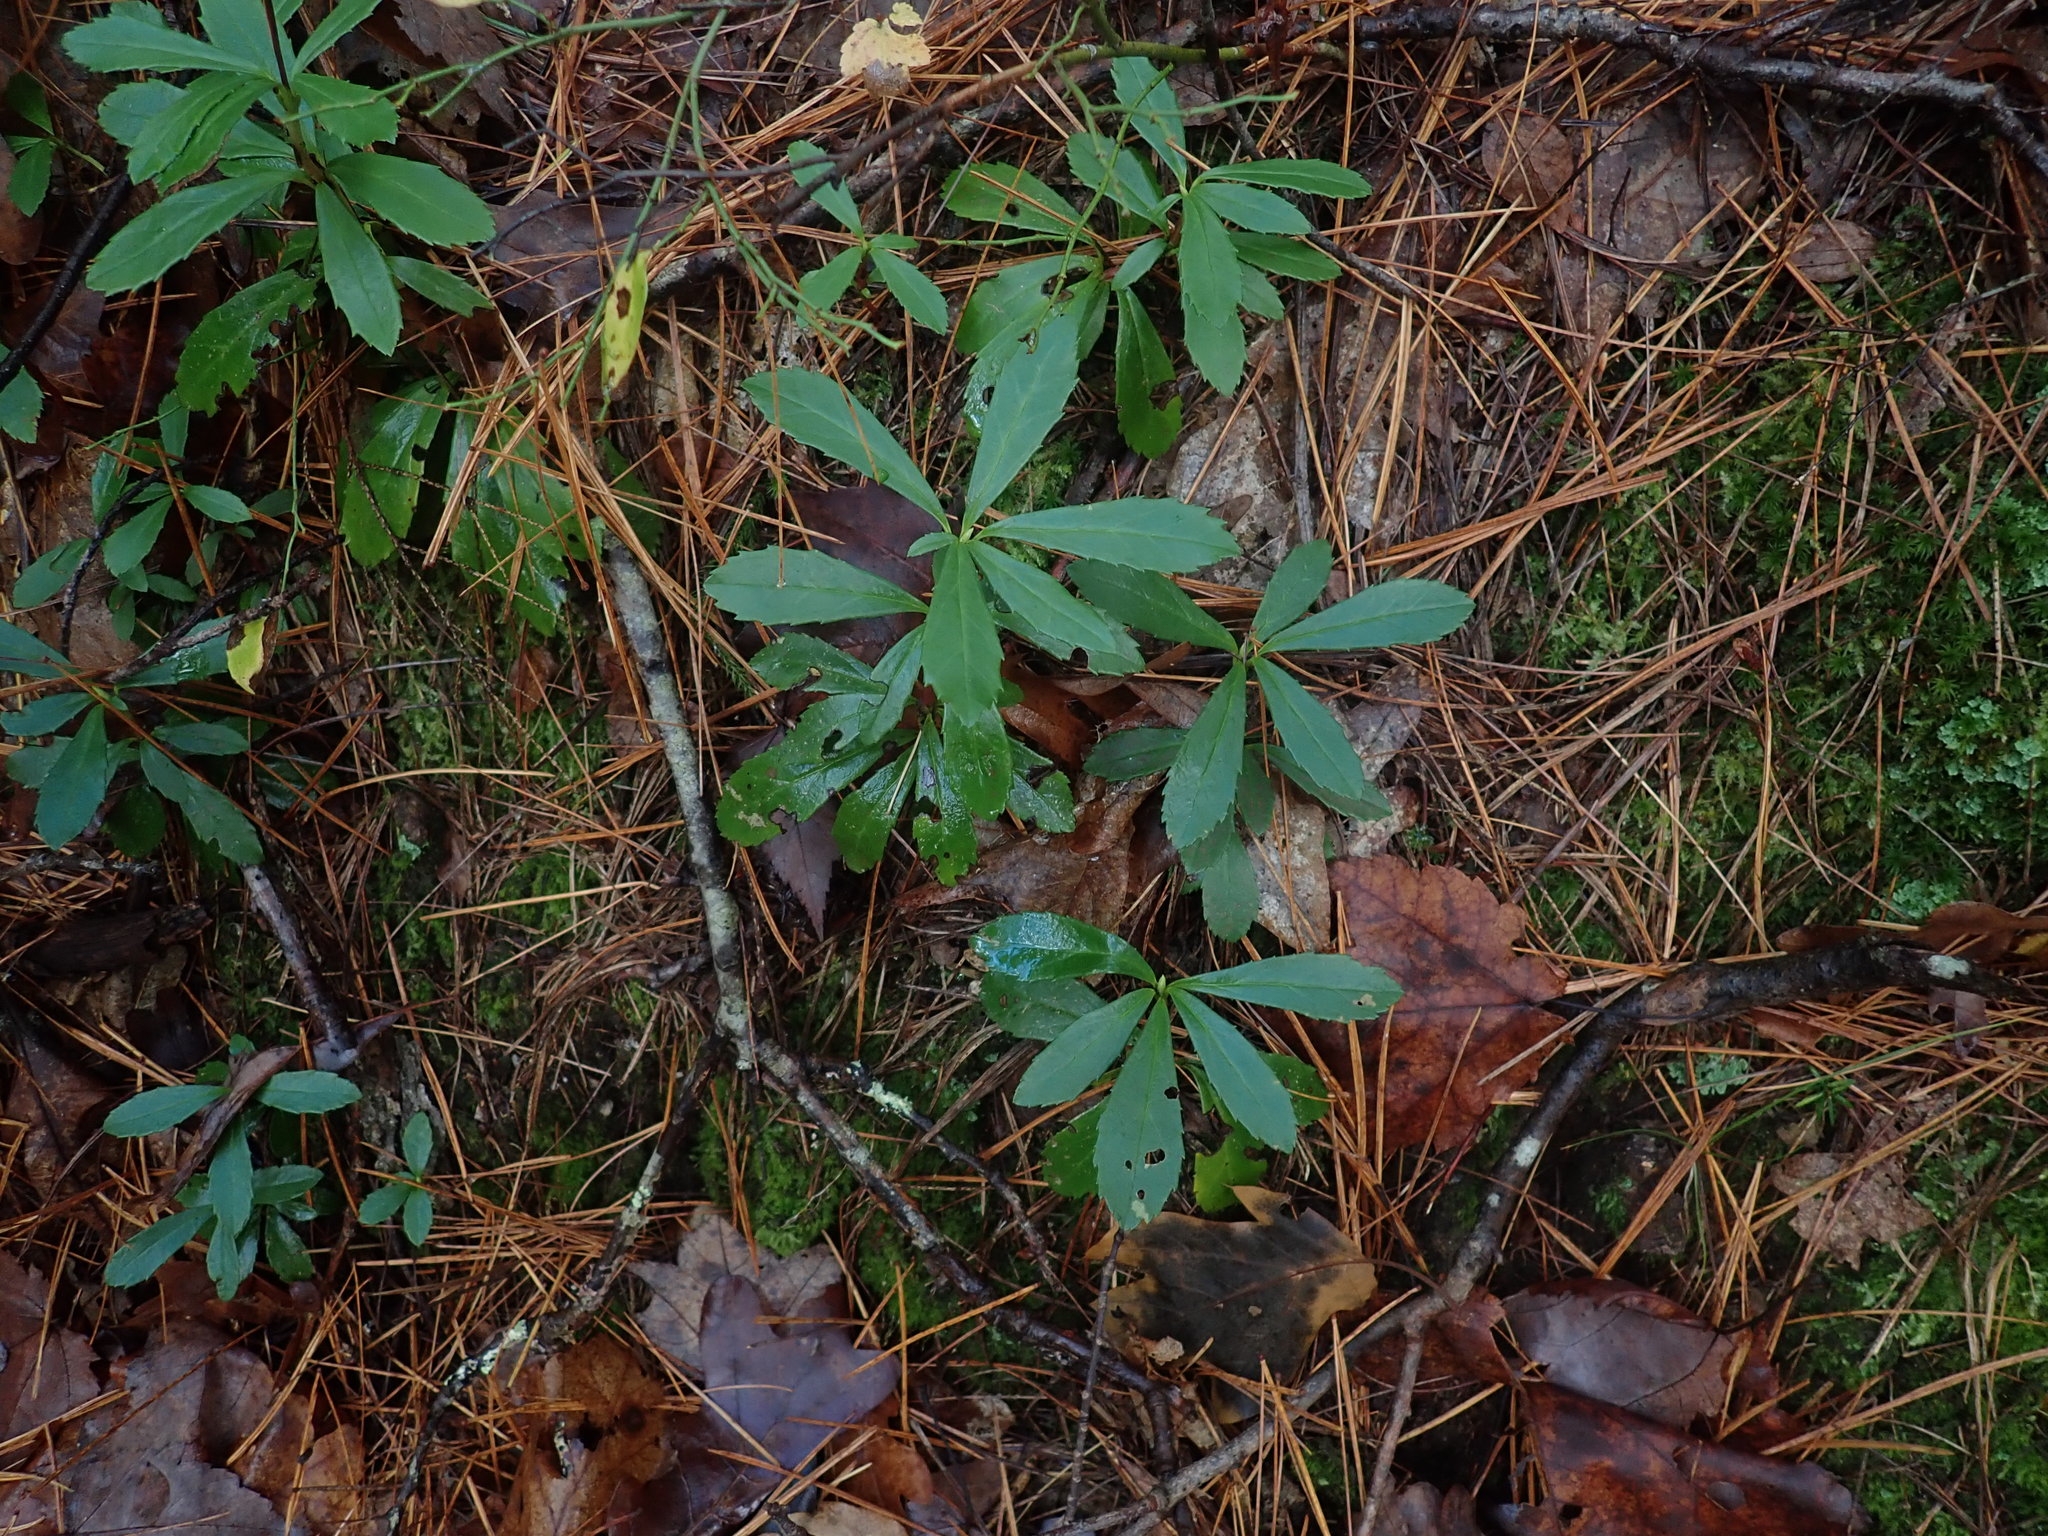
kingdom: Plantae
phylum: Tracheophyta
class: Magnoliopsida
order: Ericales
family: Ericaceae
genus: Chimaphila
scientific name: Chimaphila umbellata
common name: Pipsissewa
